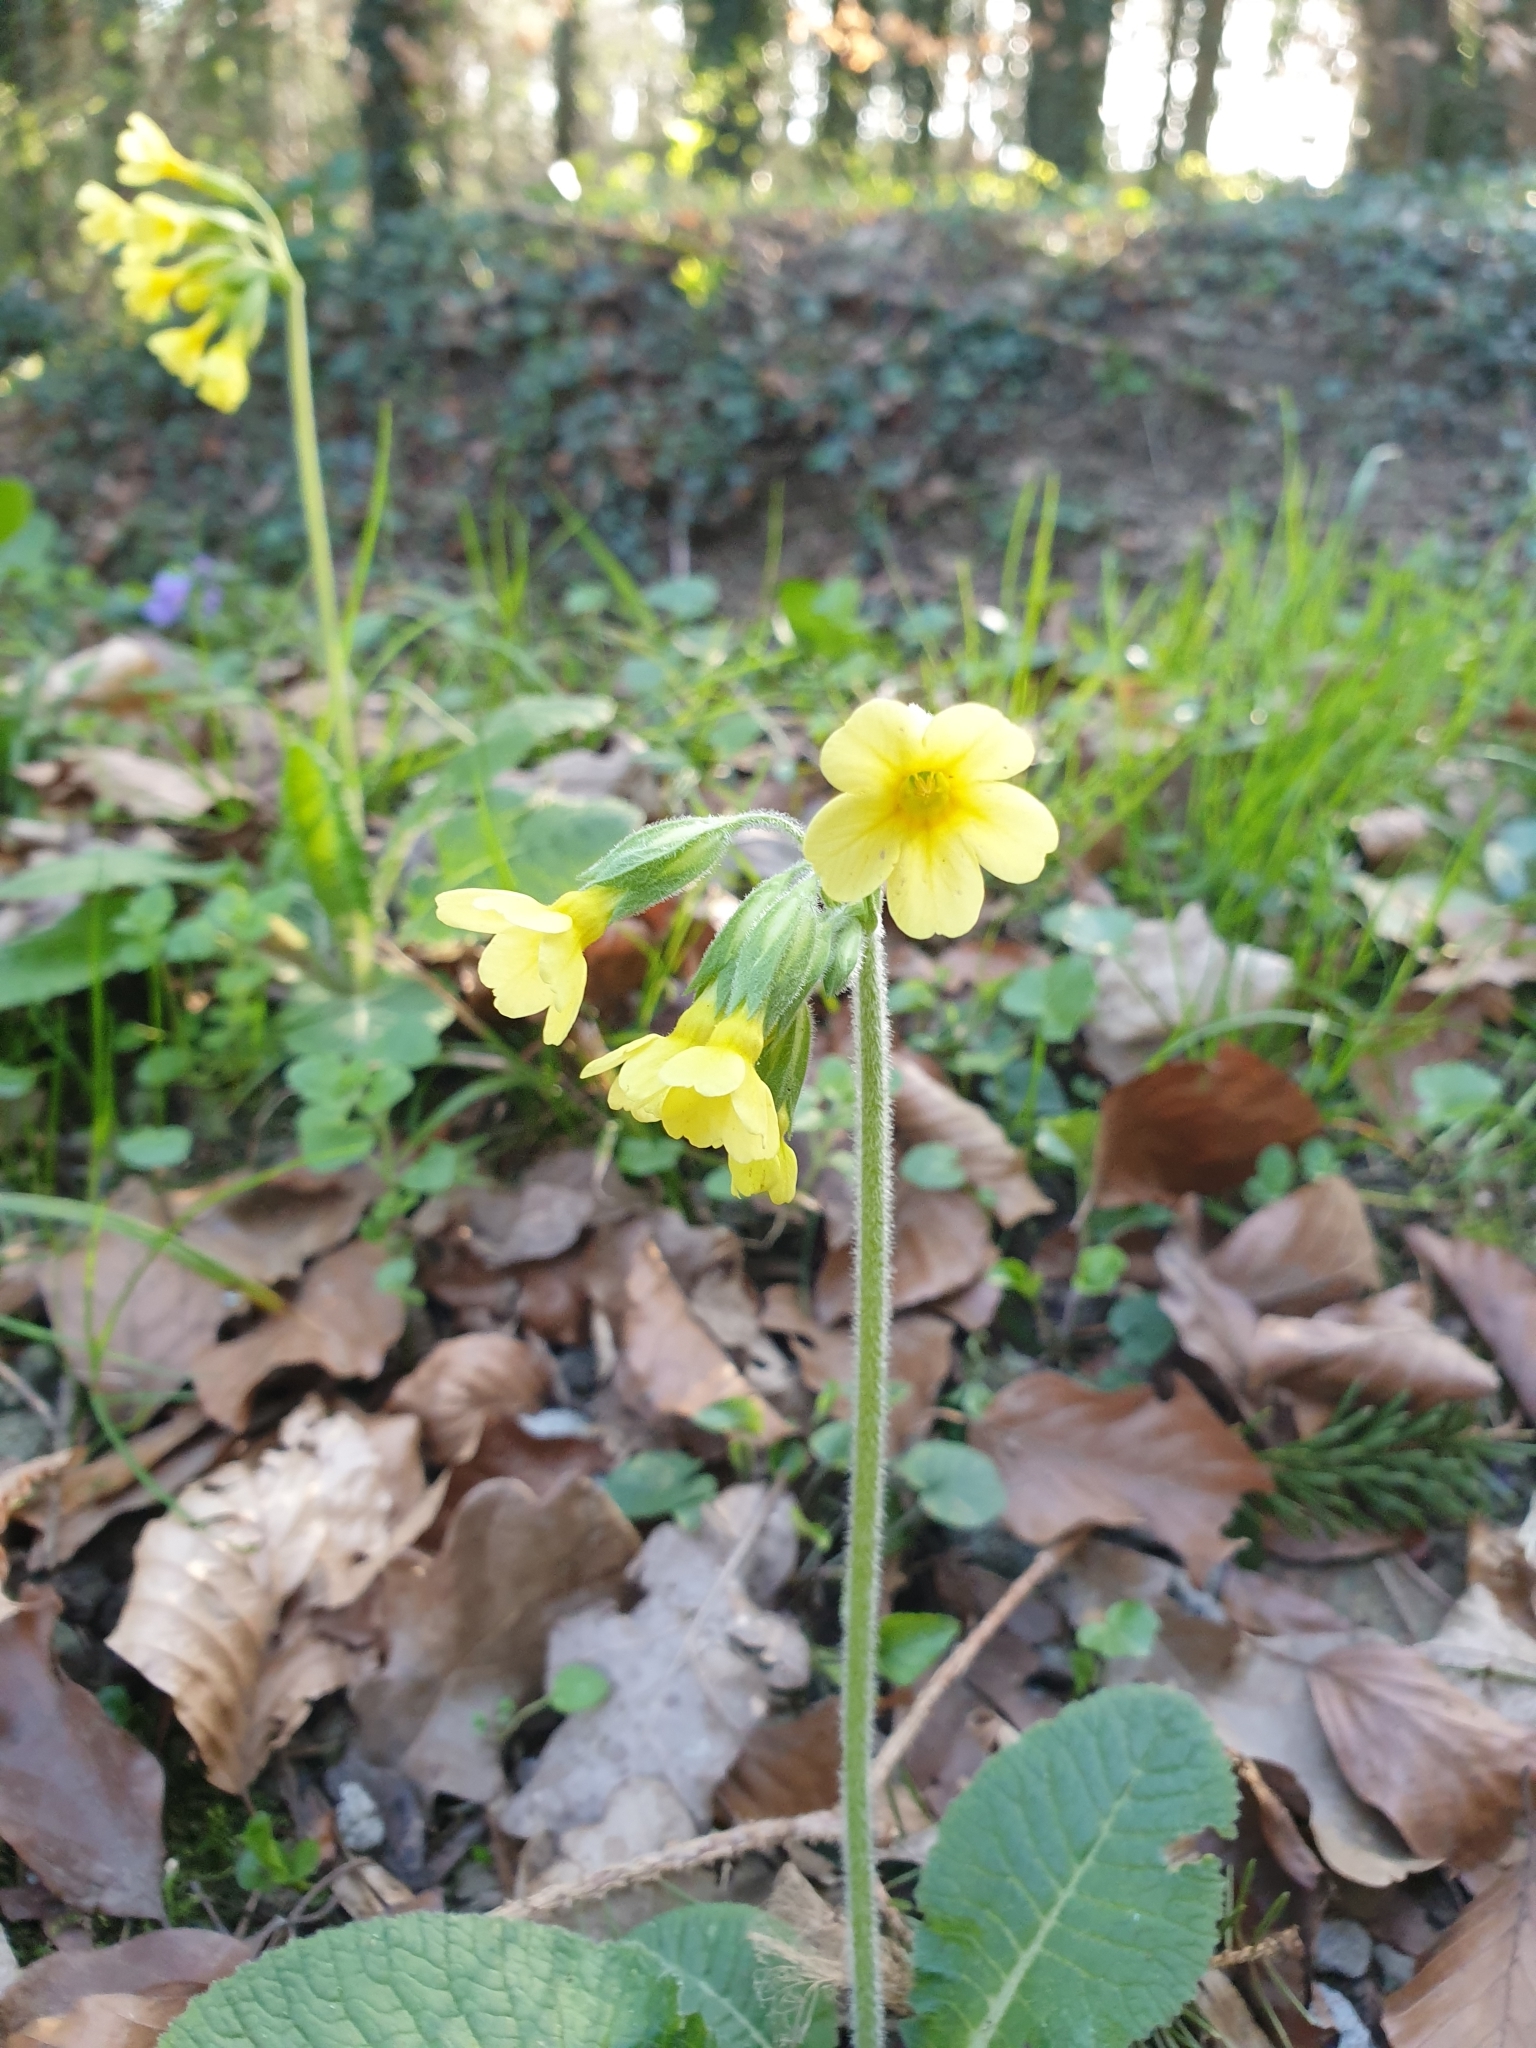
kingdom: Plantae
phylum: Tracheophyta
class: Magnoliopsida
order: Ericales
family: Primulaceae
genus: Primula
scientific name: Primula elatior
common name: Oxlip
